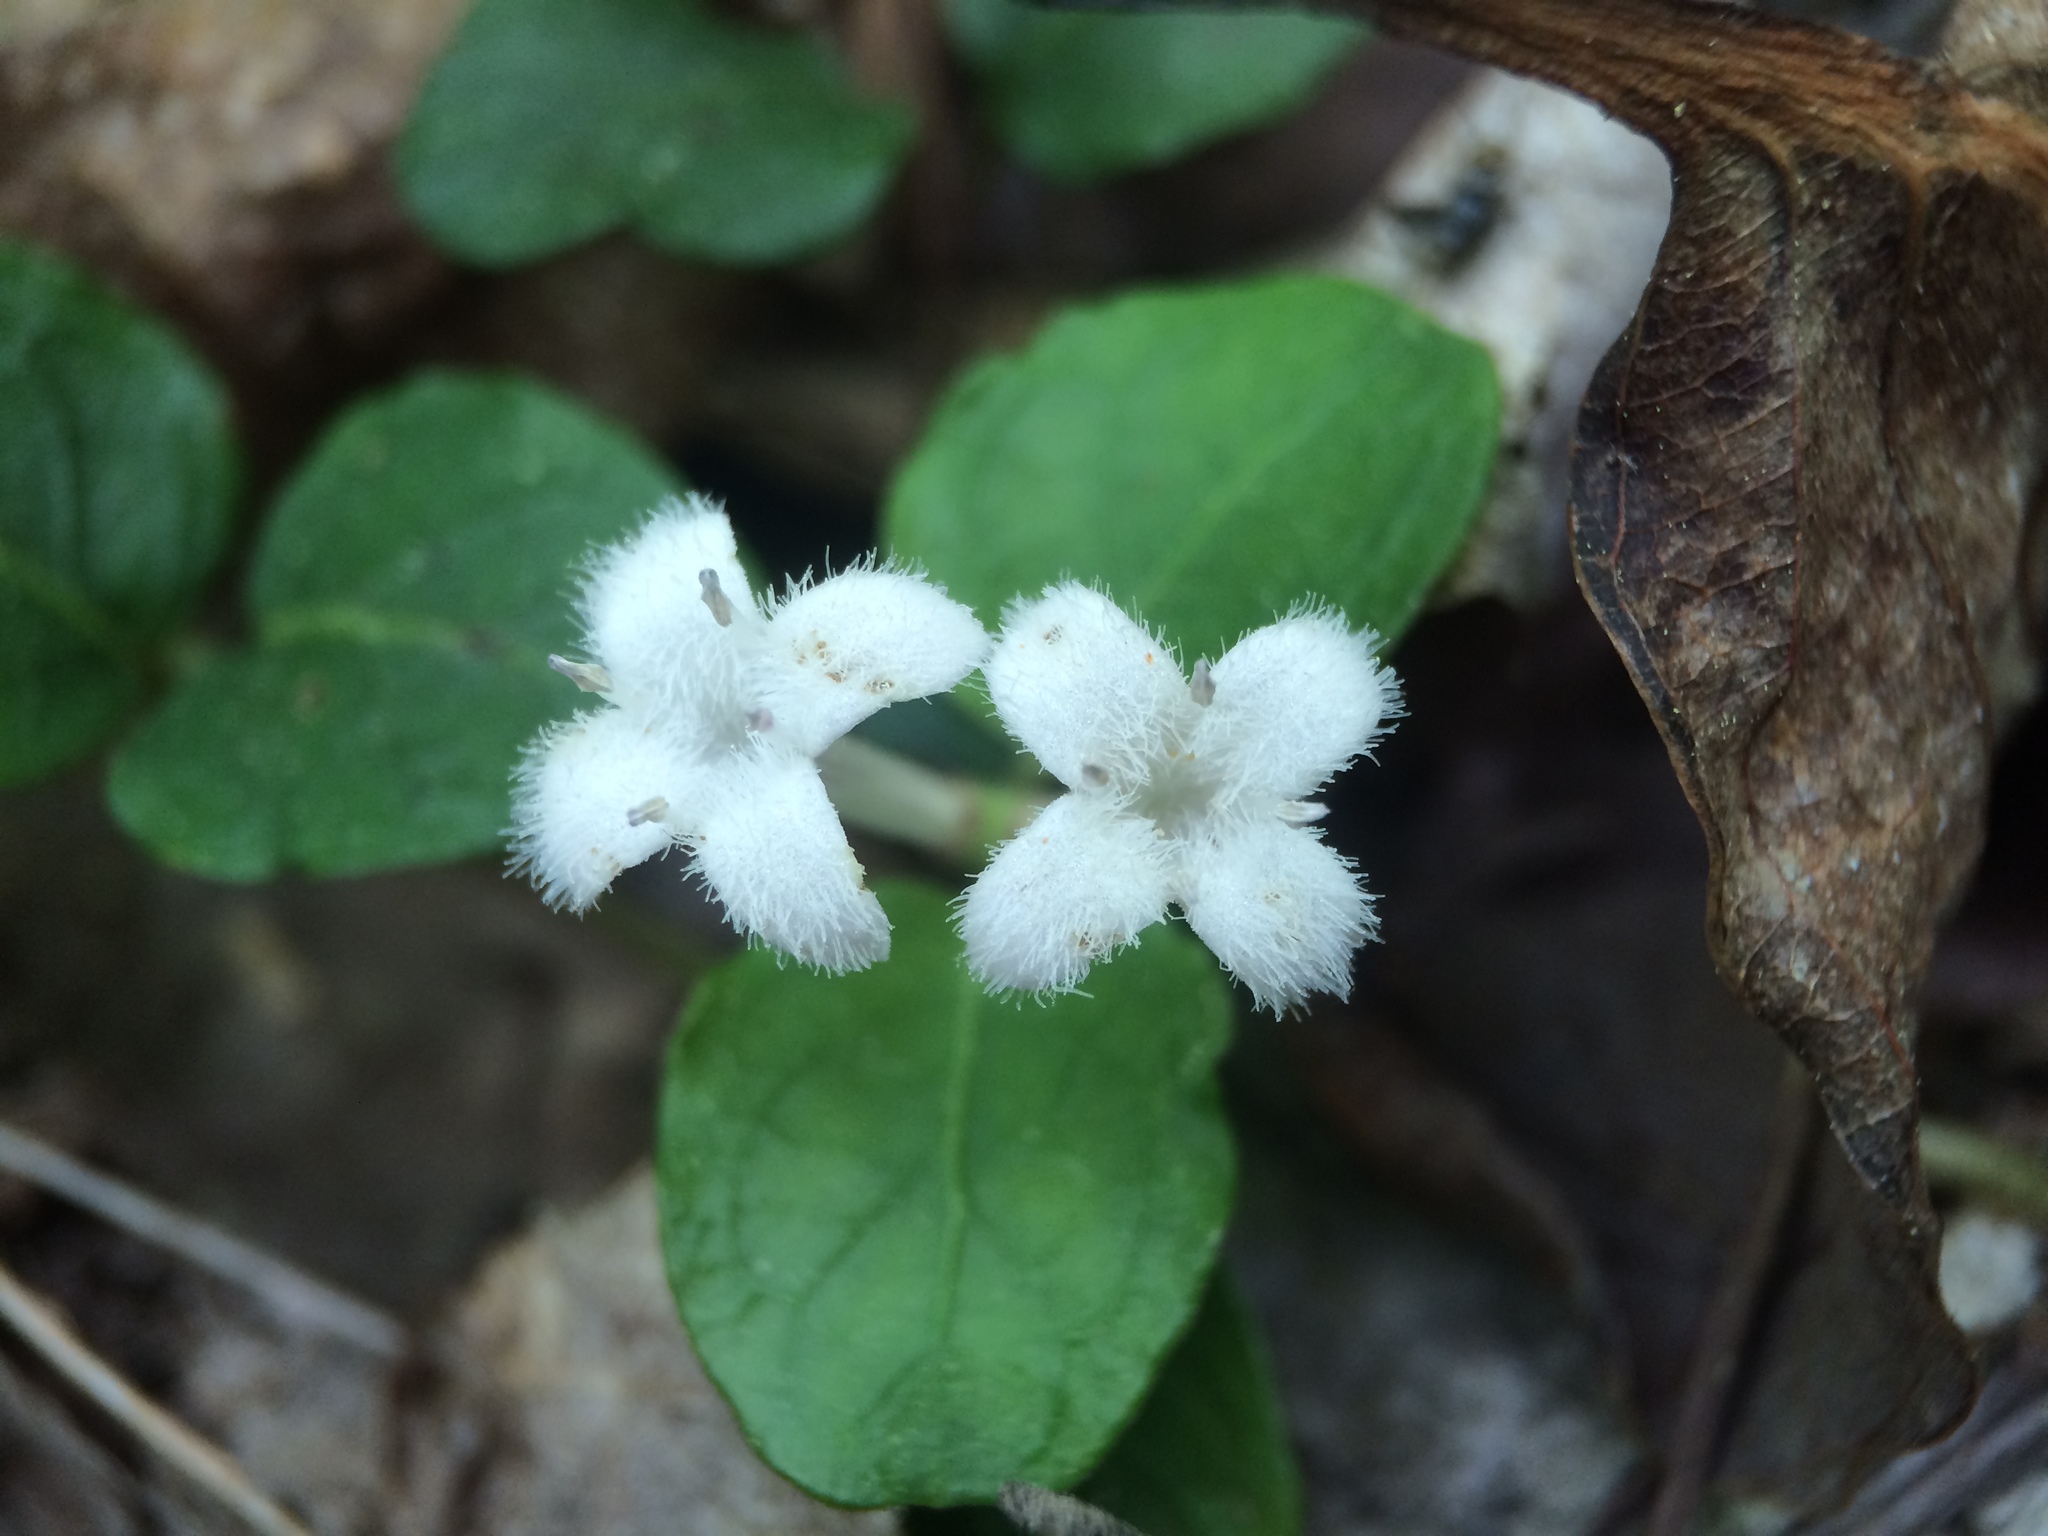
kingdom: Plantae
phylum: Tracheophyta
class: Magnoliopsida
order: Gentianales
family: Rubiaceae
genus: Mitchella
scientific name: Mitchella repens
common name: Partridge-berry
